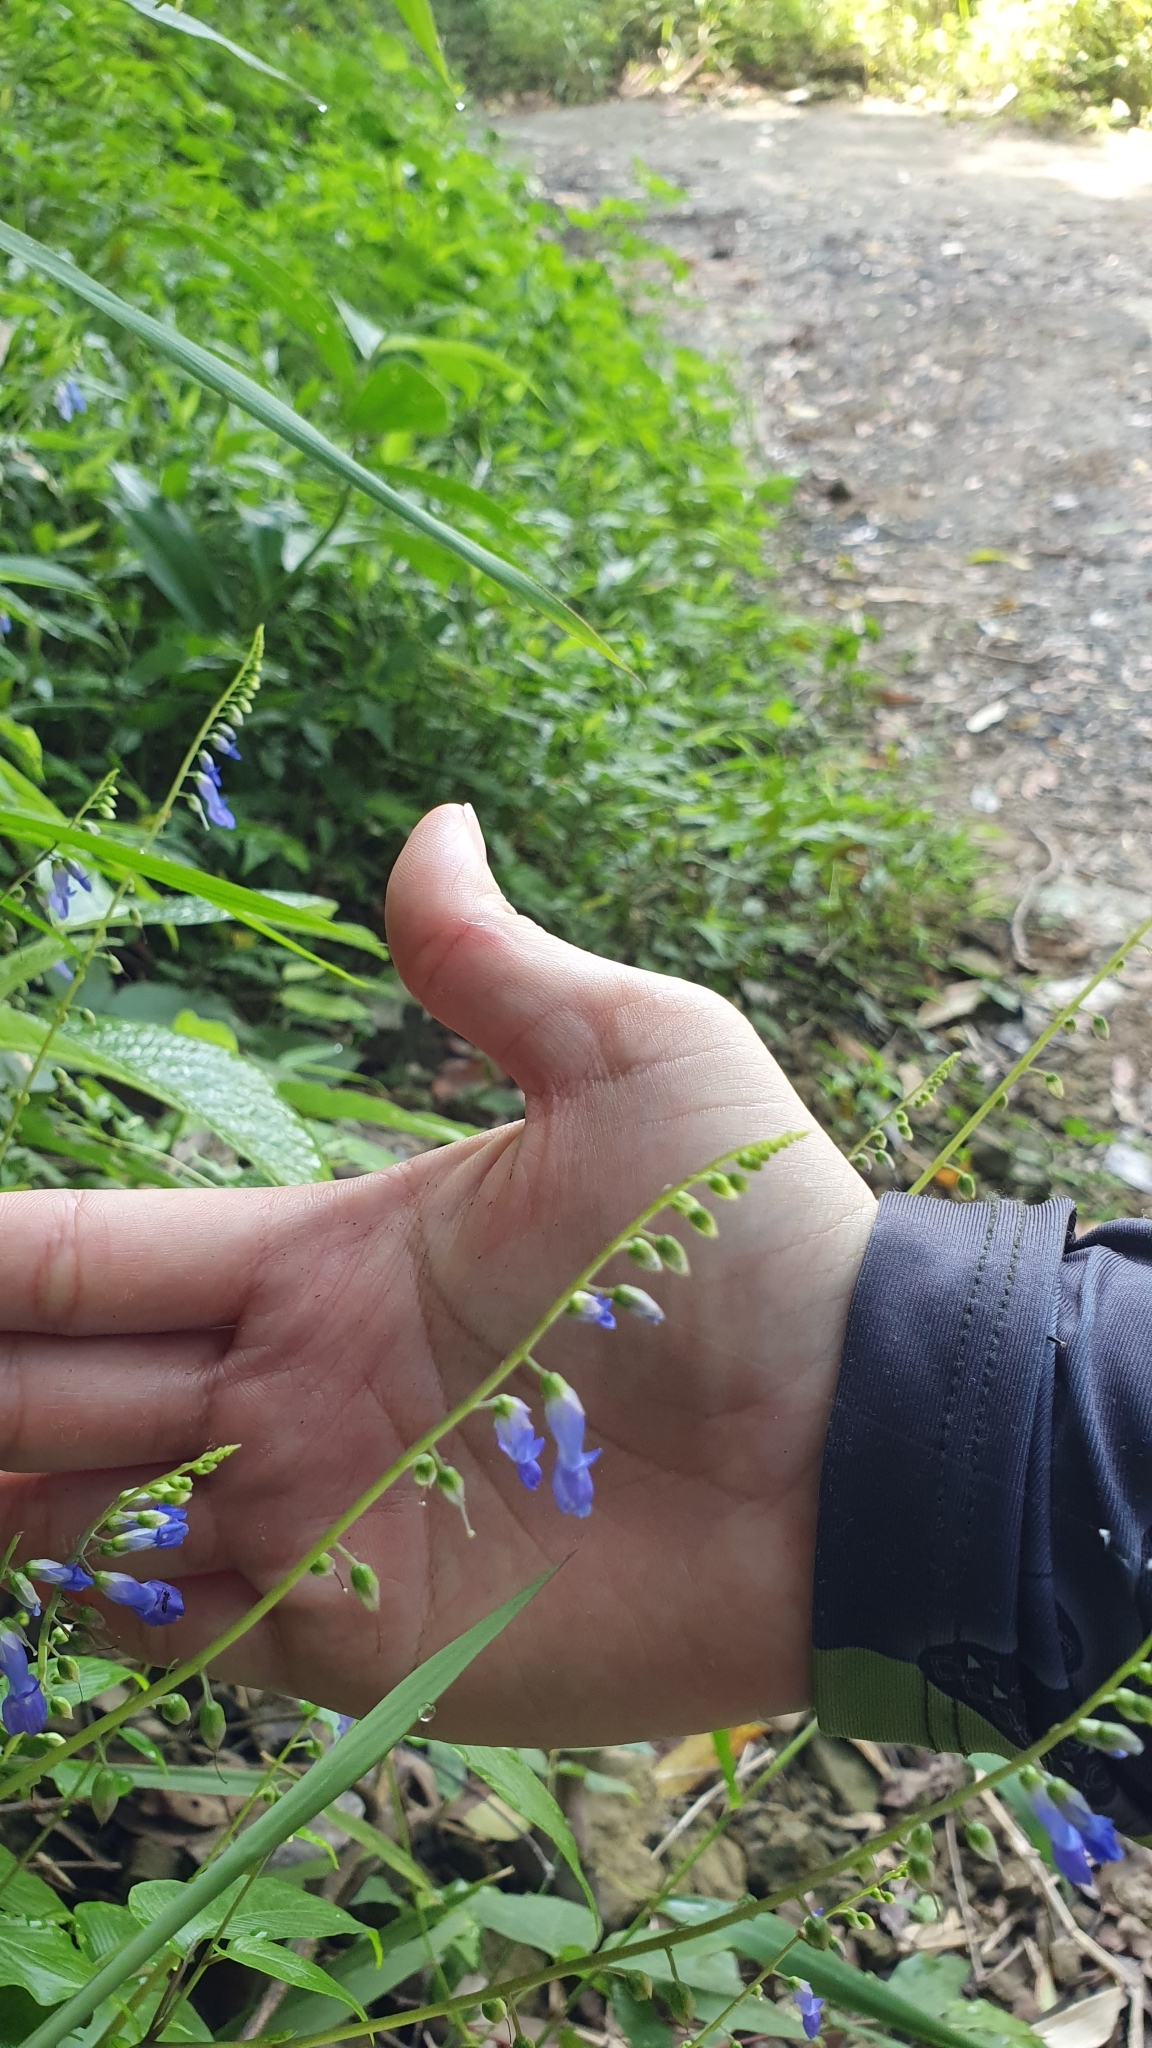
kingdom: Plantae
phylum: Tracheophyta
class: Magnoliopsida
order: Lamiales
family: Gesneriaceae
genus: Rhynchoglossum
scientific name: Rhynchoglossum obliquum
